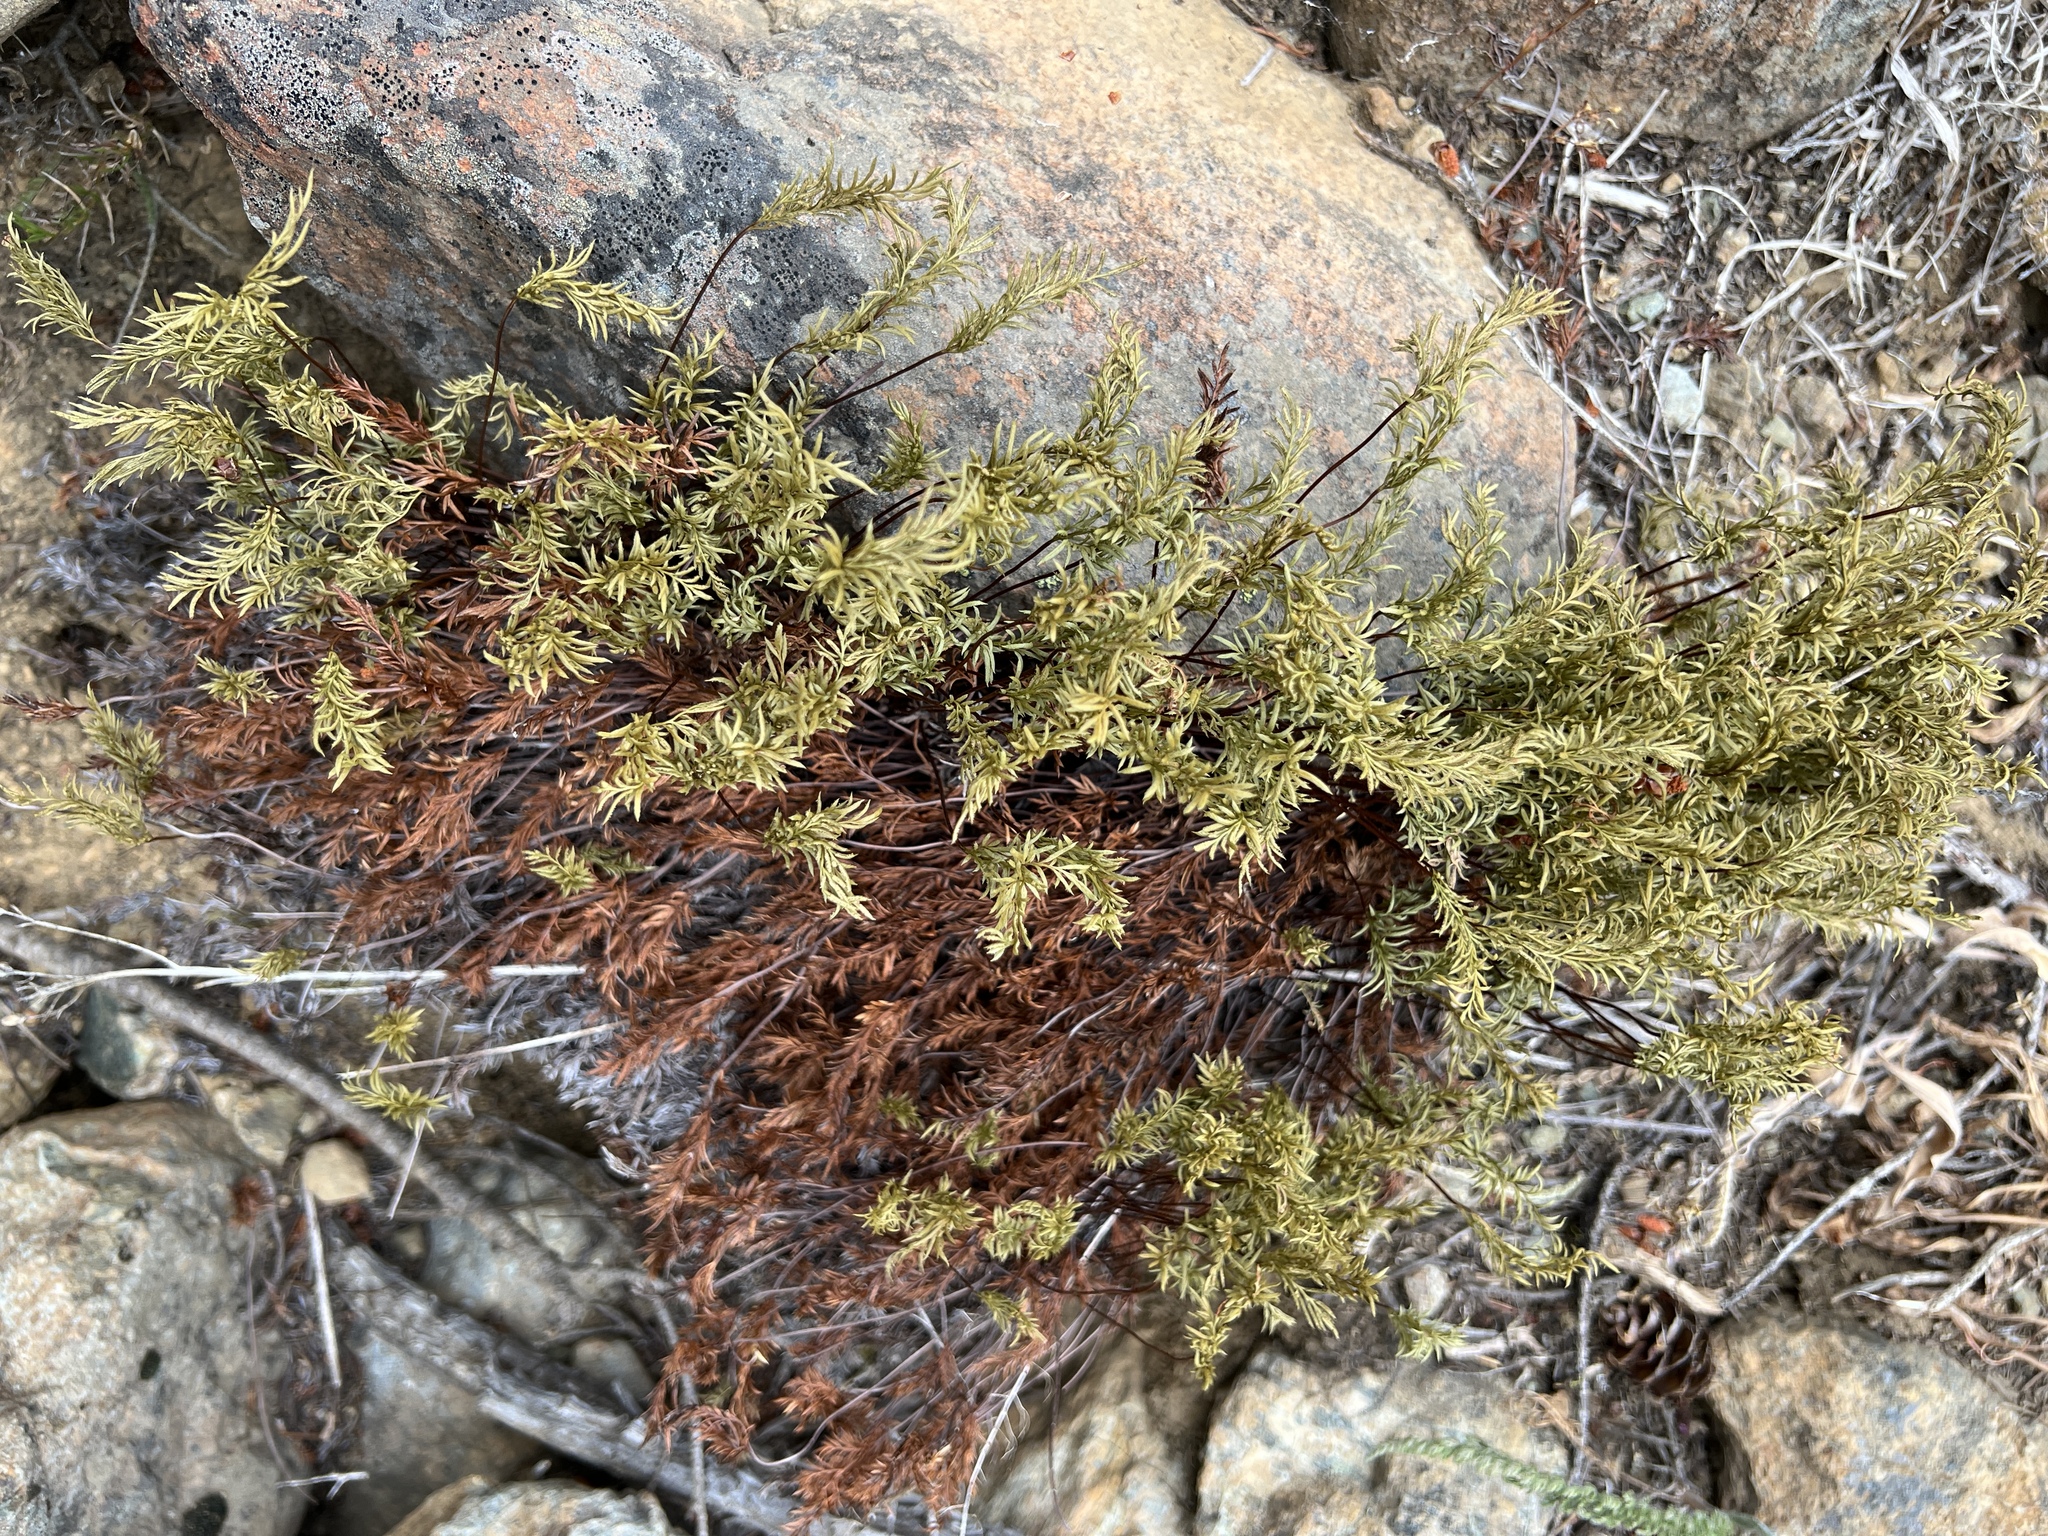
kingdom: Plantae
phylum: Tracheophyta
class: Polypodiopsida
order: Polypodiales
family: Pteridaceae
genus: Aspidotis
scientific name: Aspidotis densa
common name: Indian's dream
